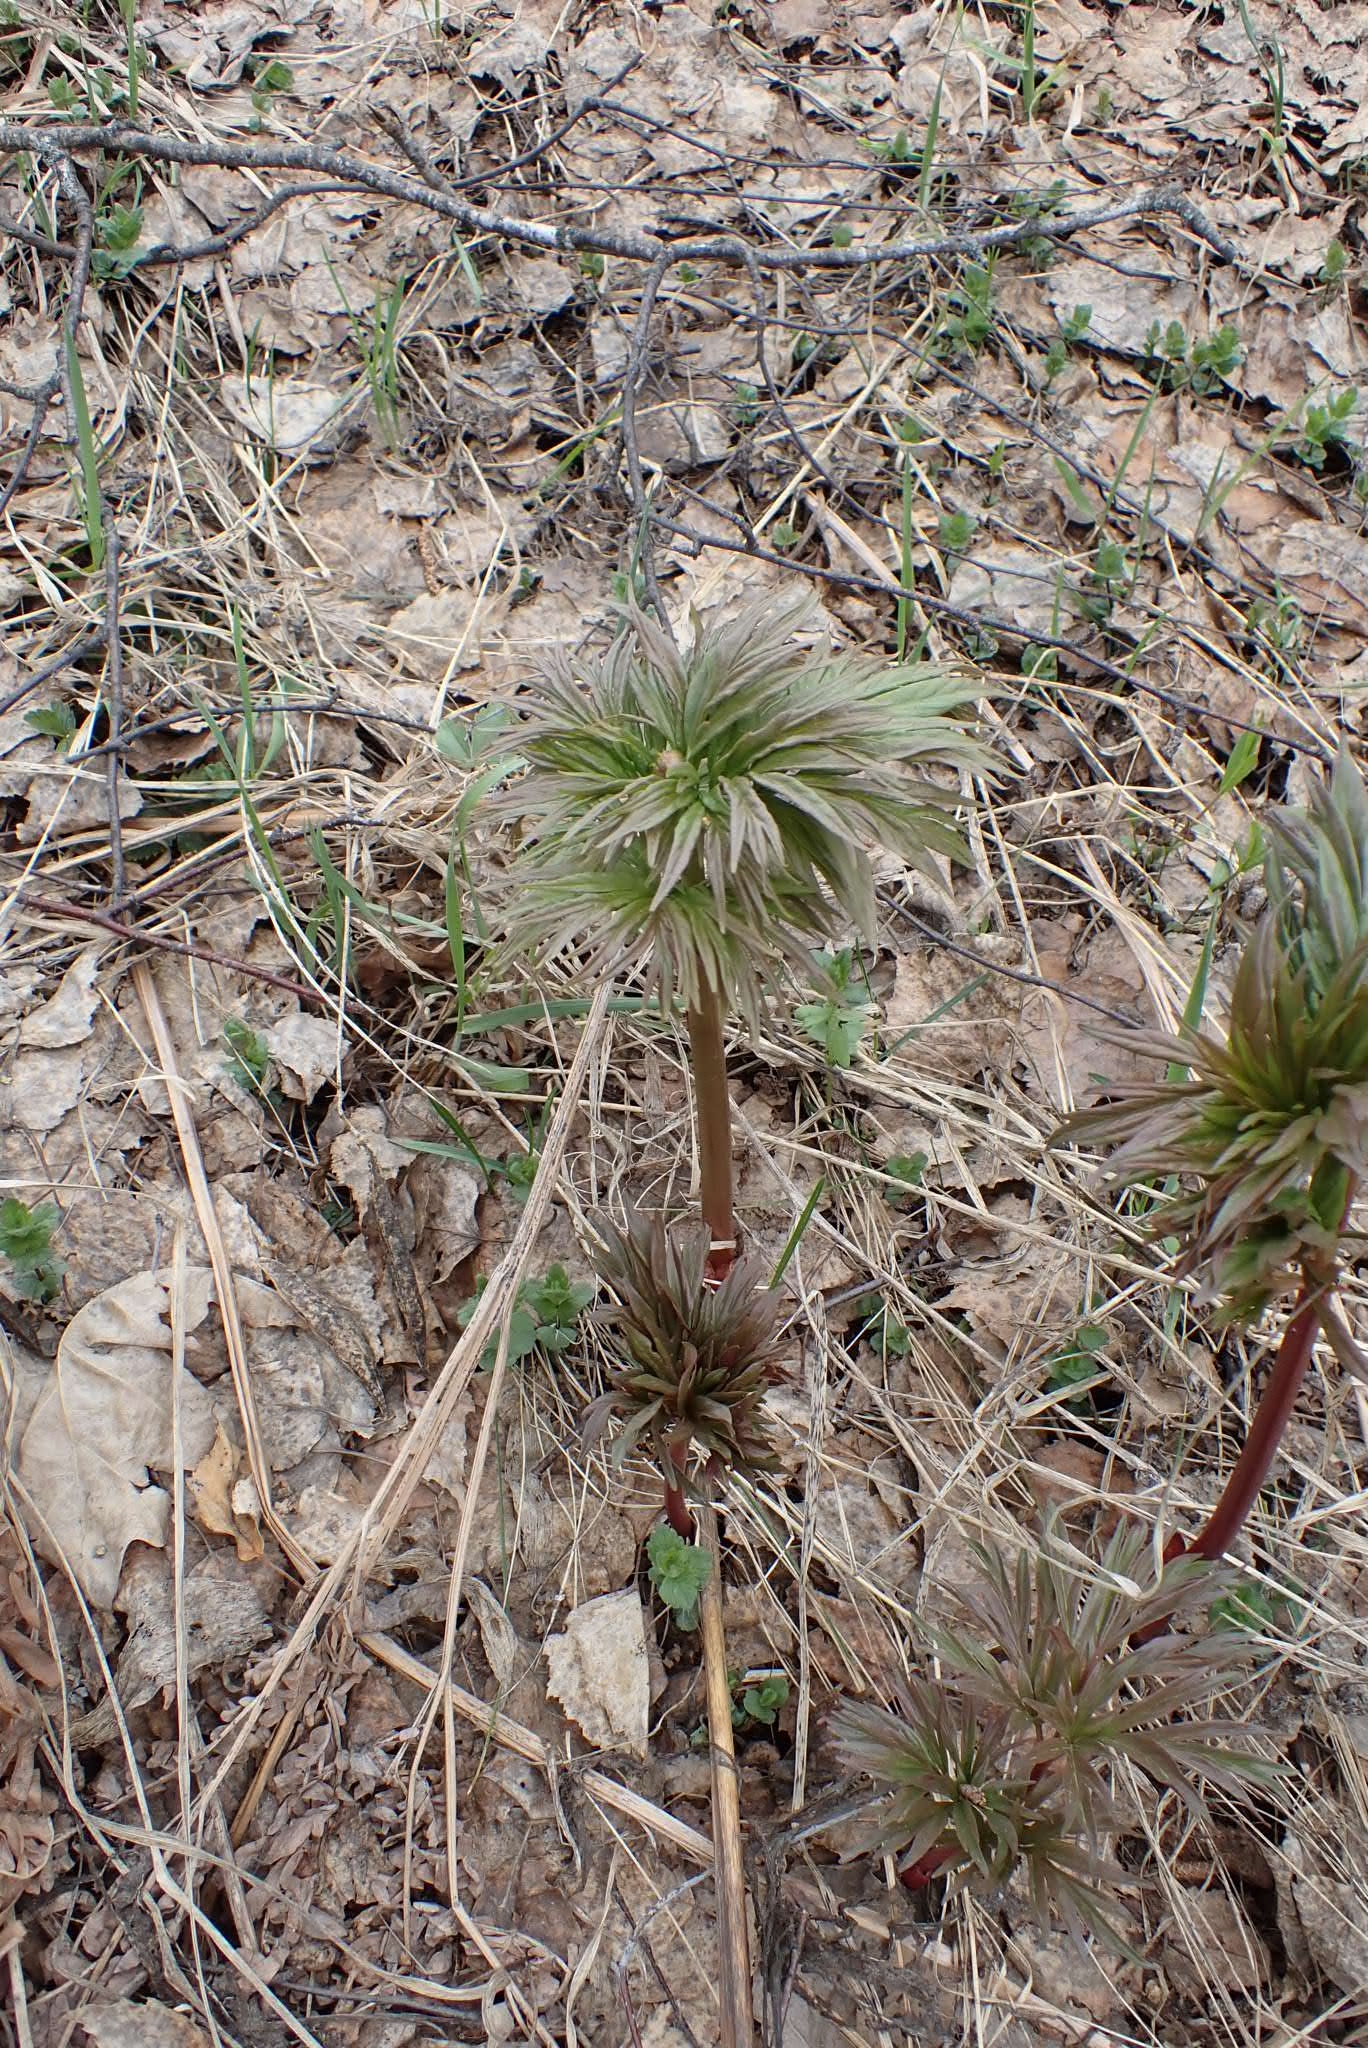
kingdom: Plantae
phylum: Tracheophyta
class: Magnoliopsida
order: Saxifragales
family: Paeoniaceae
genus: Paeonia
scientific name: Paeonia anomala
